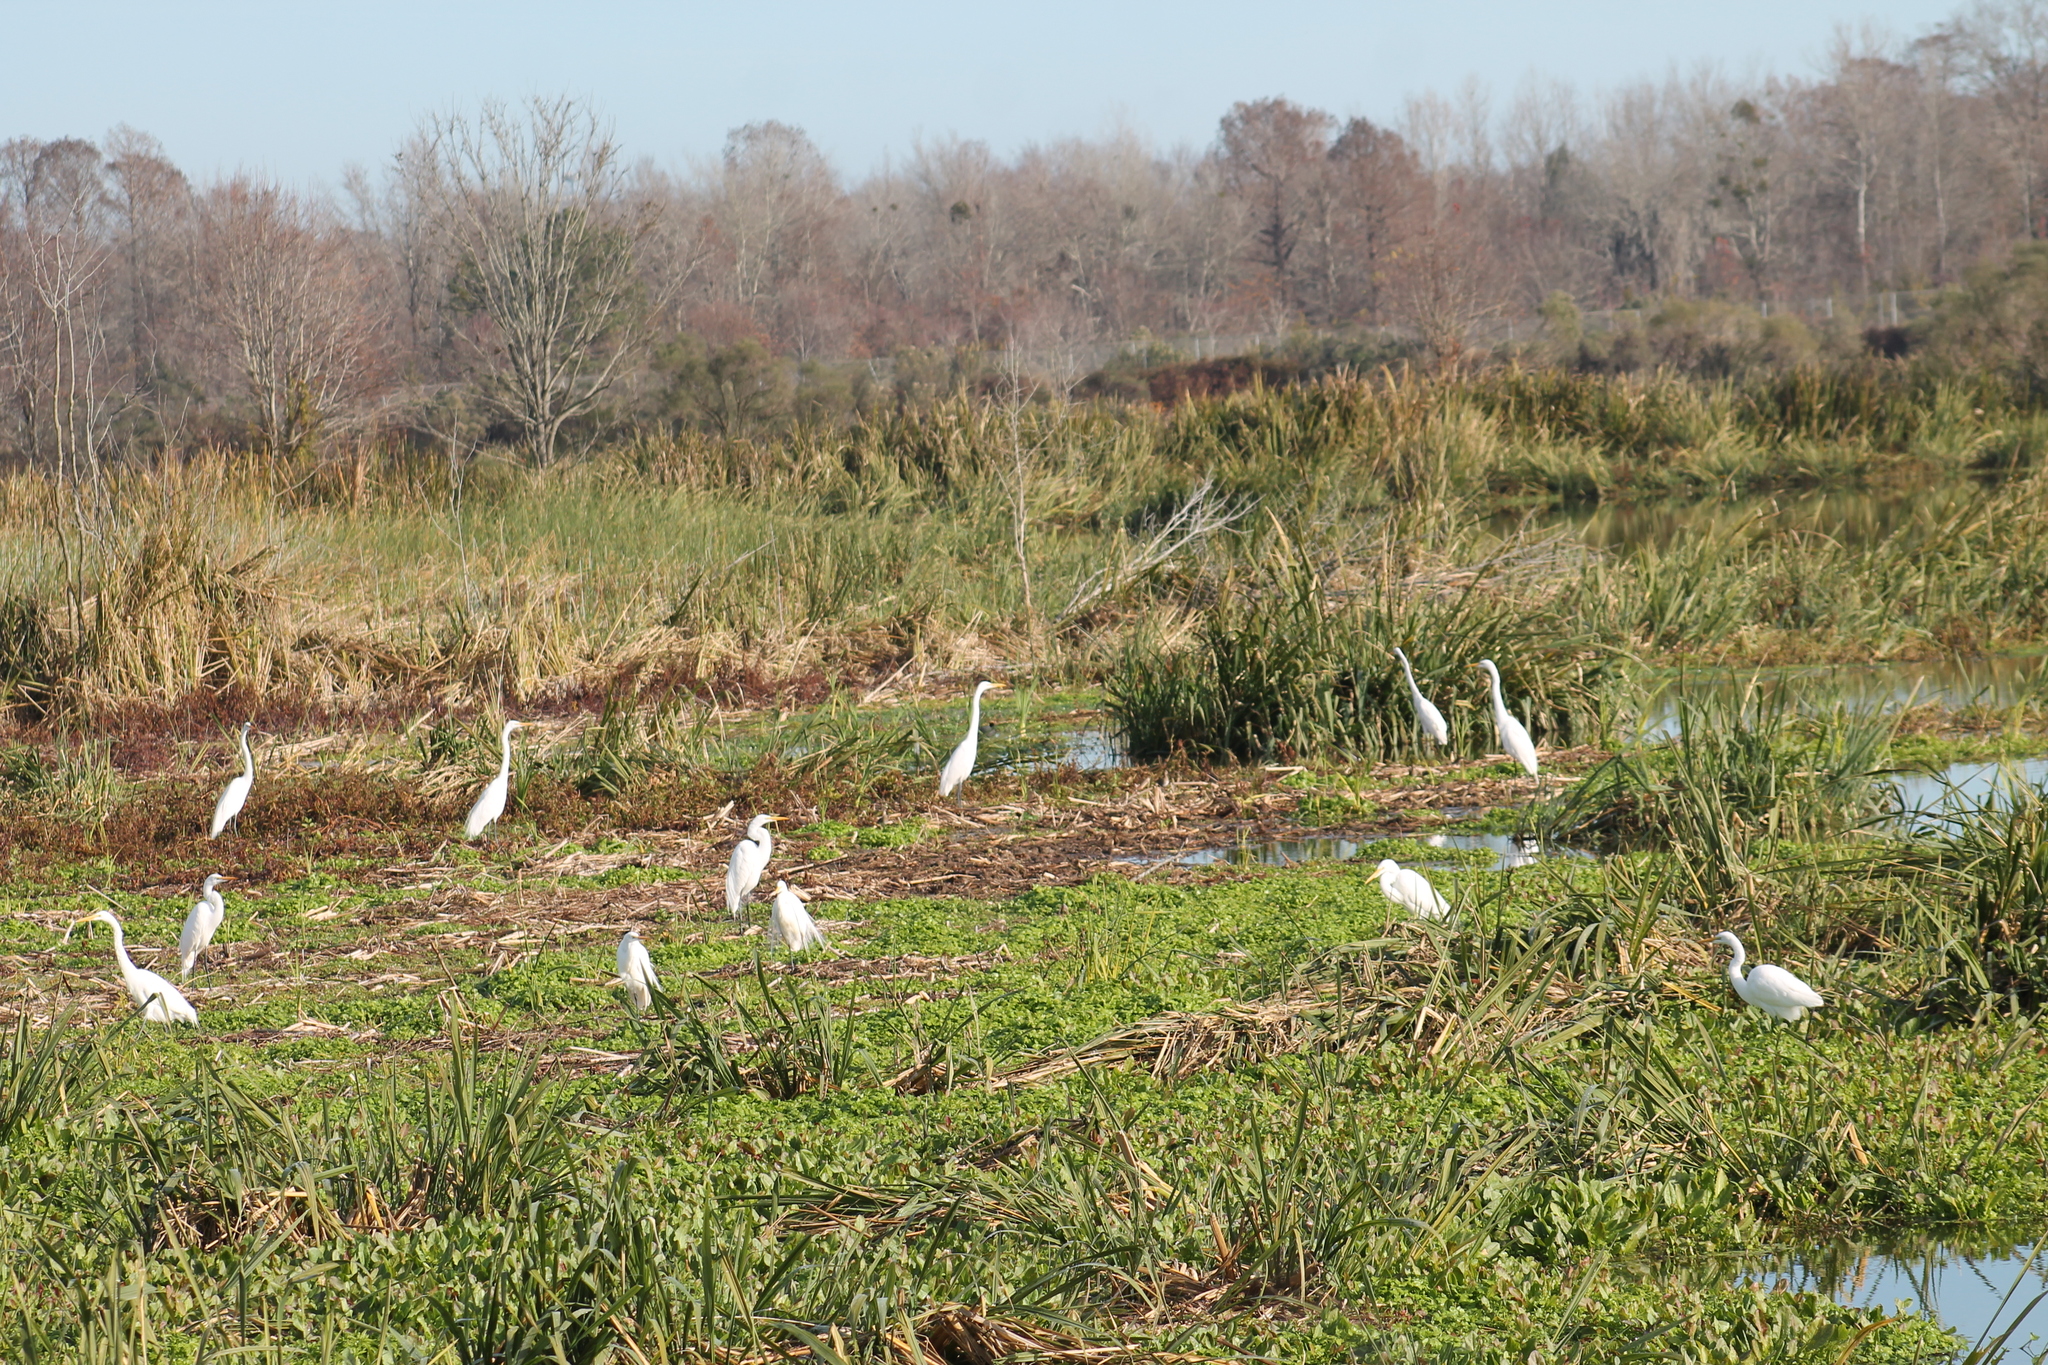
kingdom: Animalia
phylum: Chordata
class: Aves
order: Pelecaniformes
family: Ardeidae
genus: Ardea
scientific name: Ardea alba
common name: Great egret
